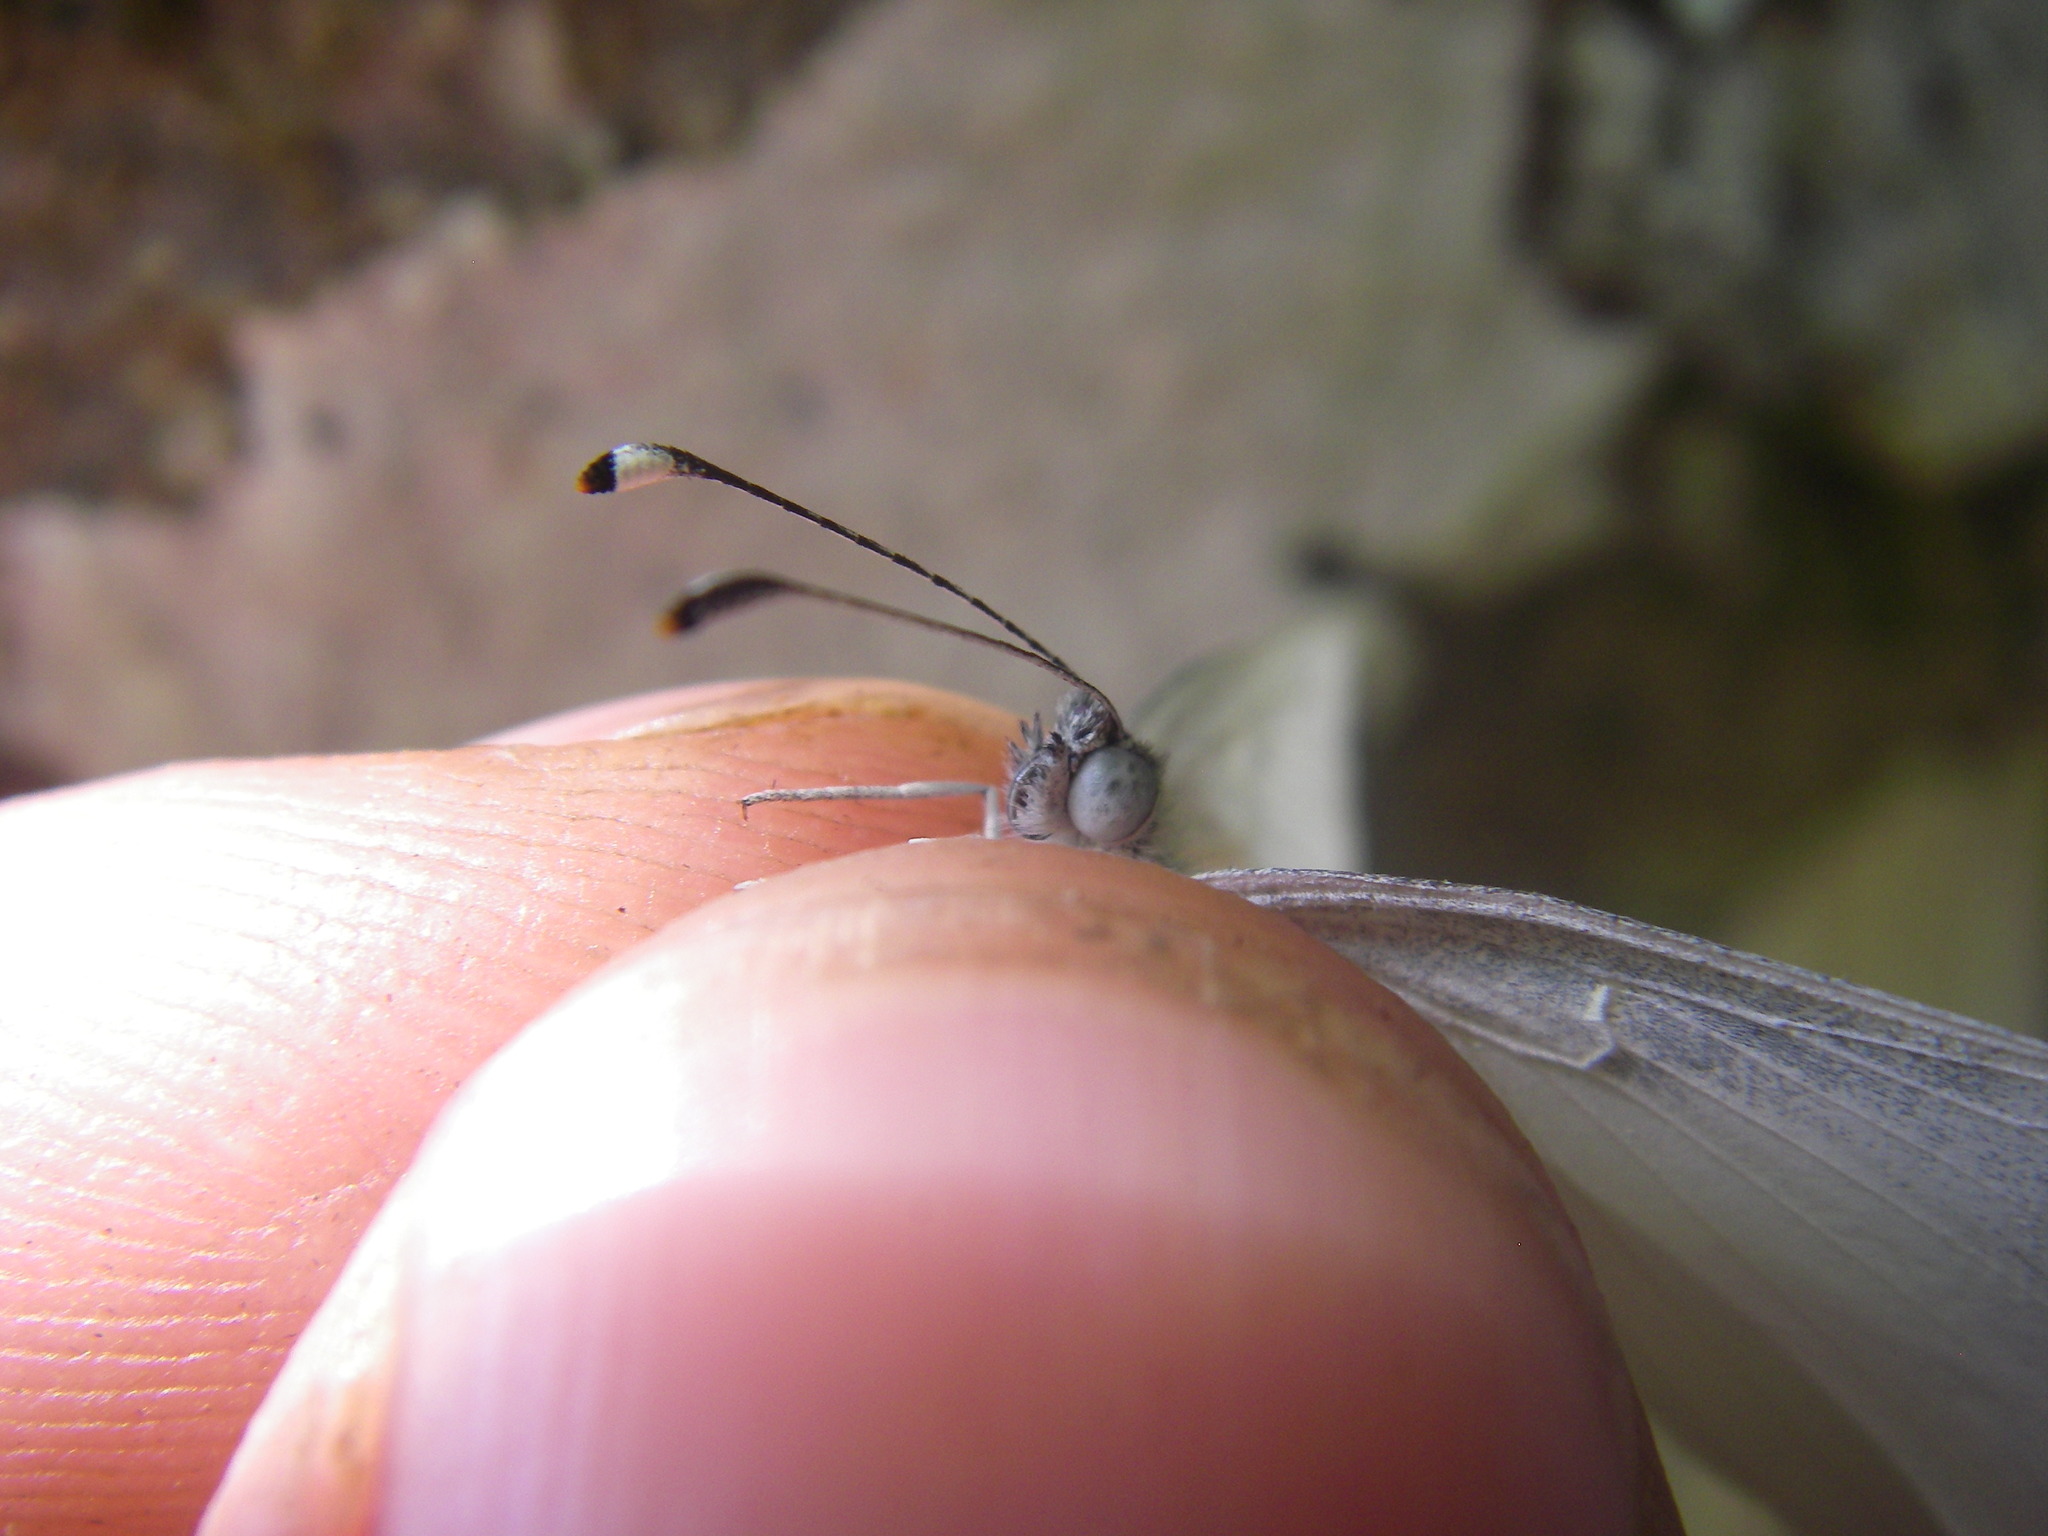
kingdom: Animalia
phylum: Arthropoda
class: Insecta
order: Lepidoptera
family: Pieridae
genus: Leptidea
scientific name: Leptidea
